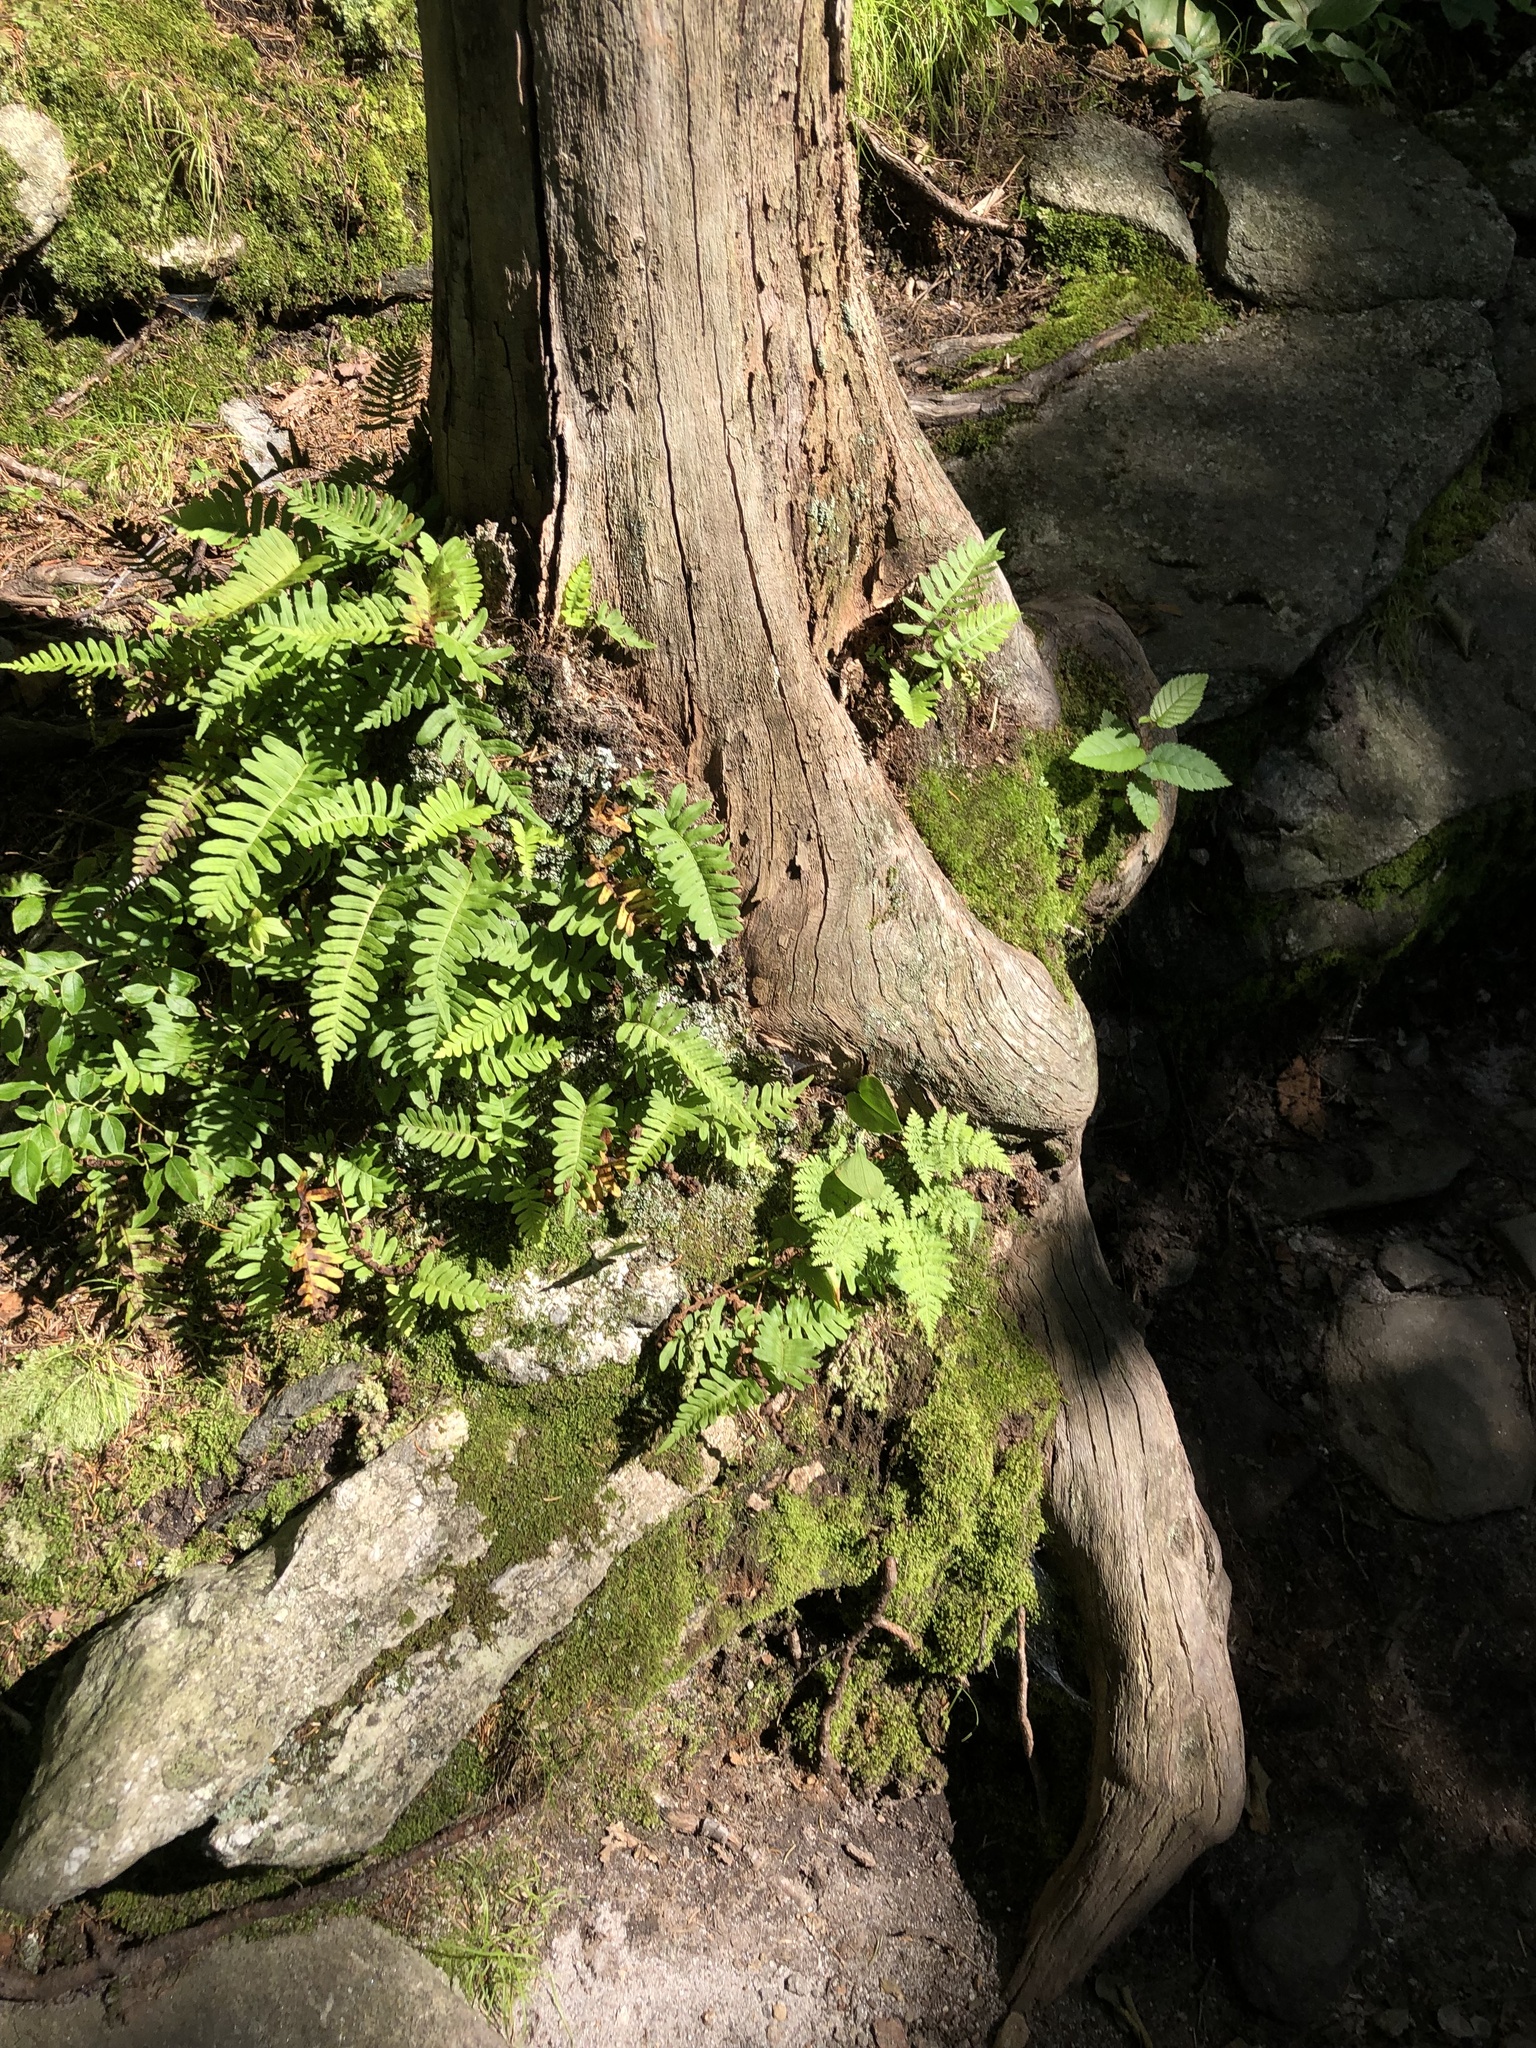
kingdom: Plantae
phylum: Tracheophyta
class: Polypodiopsida
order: Polypodiales
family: Polypodiaceae
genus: Polypodium
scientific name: Polypodium virginianum
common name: American wall fern
